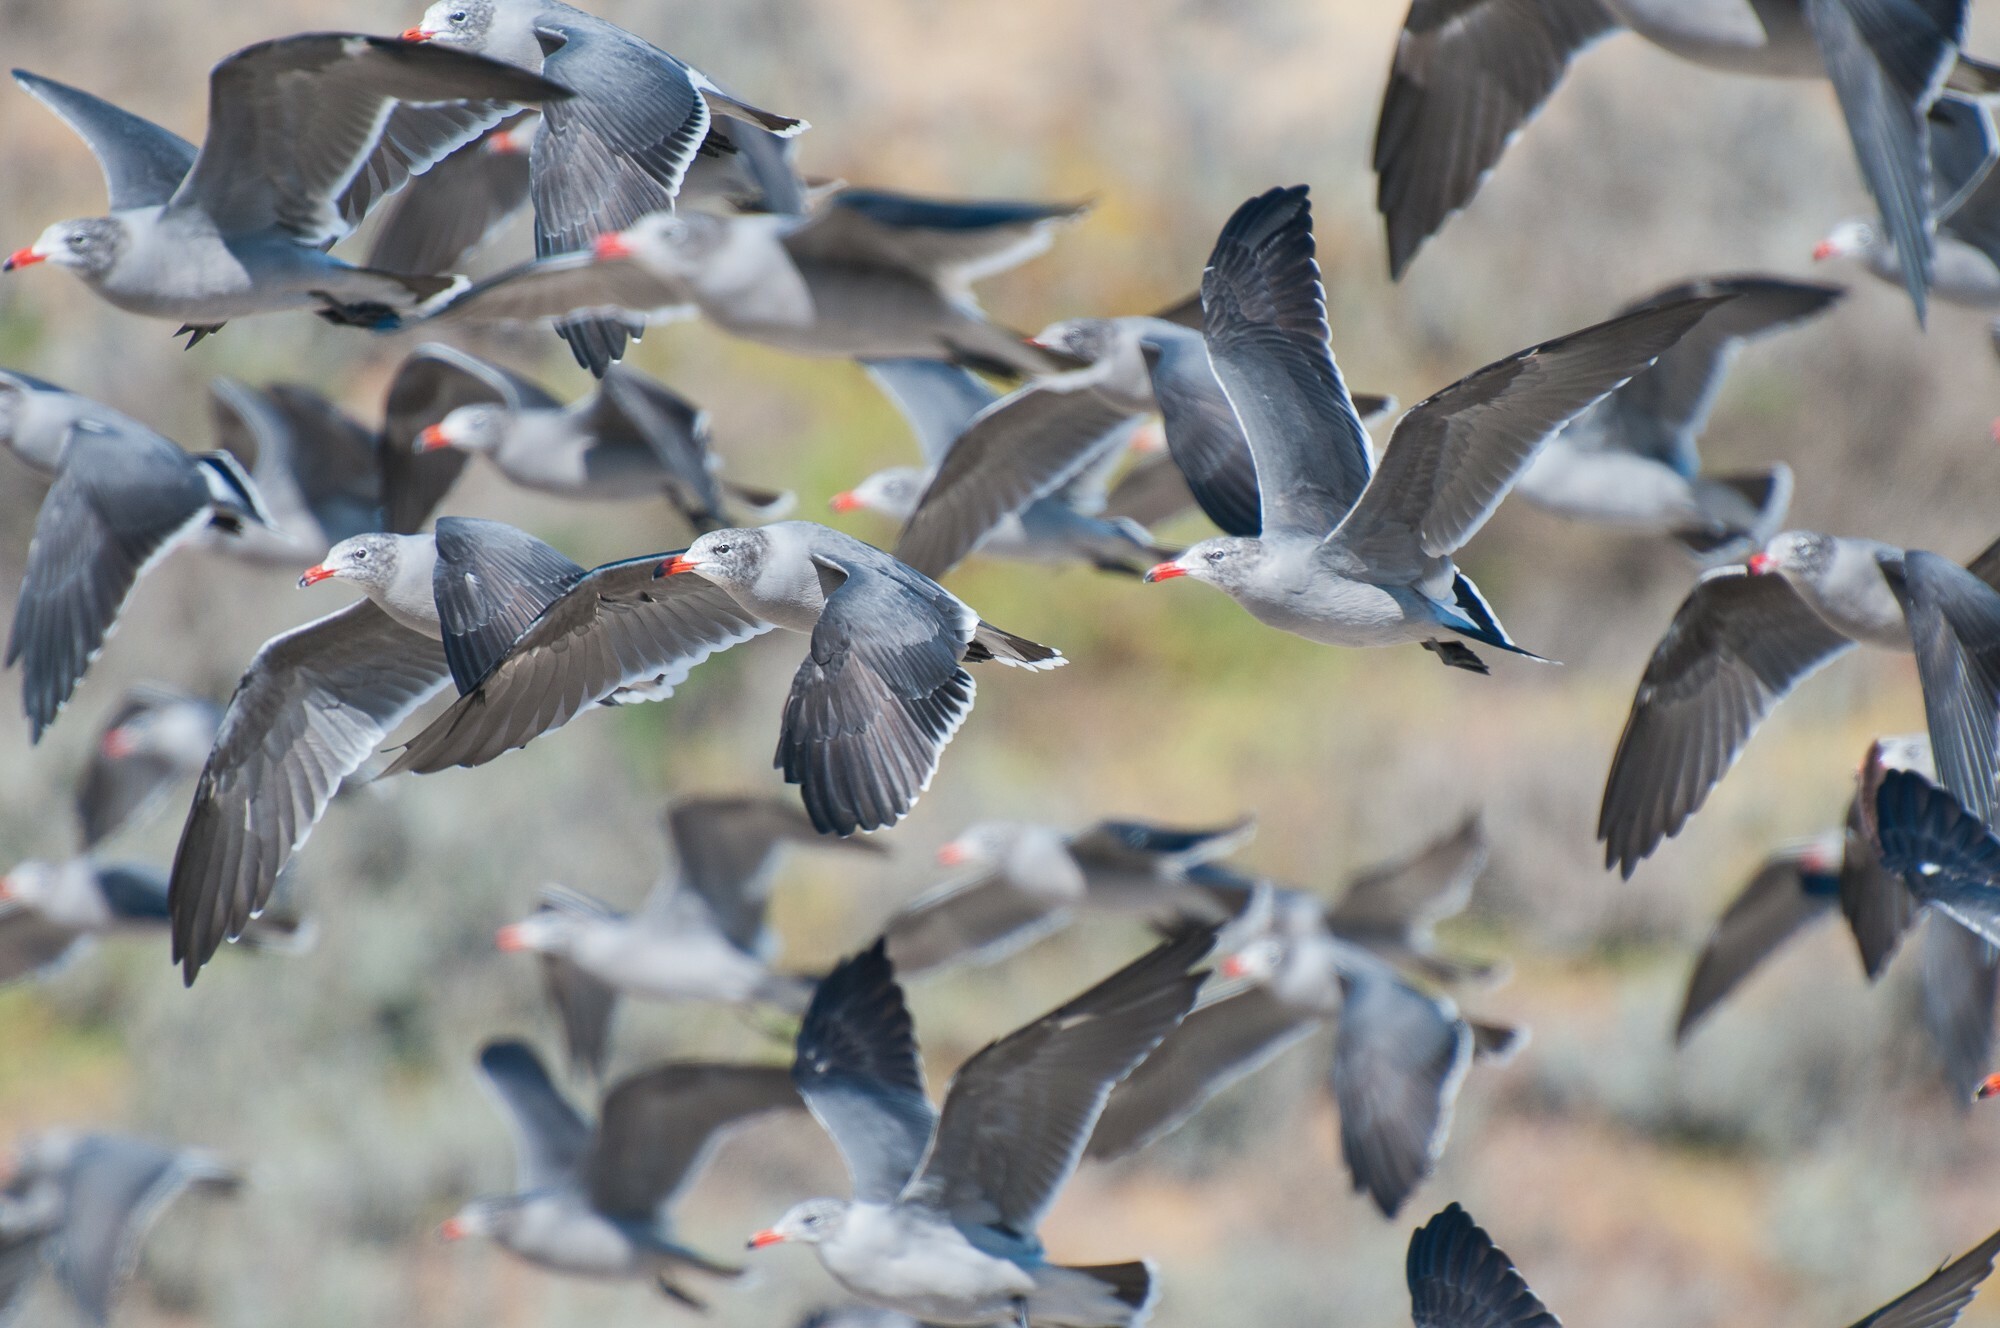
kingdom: Animalia
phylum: Chordata
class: Aves
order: Charadriiformes
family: Laridae
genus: Larus
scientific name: Larus heermanni
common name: Heermann's gull
